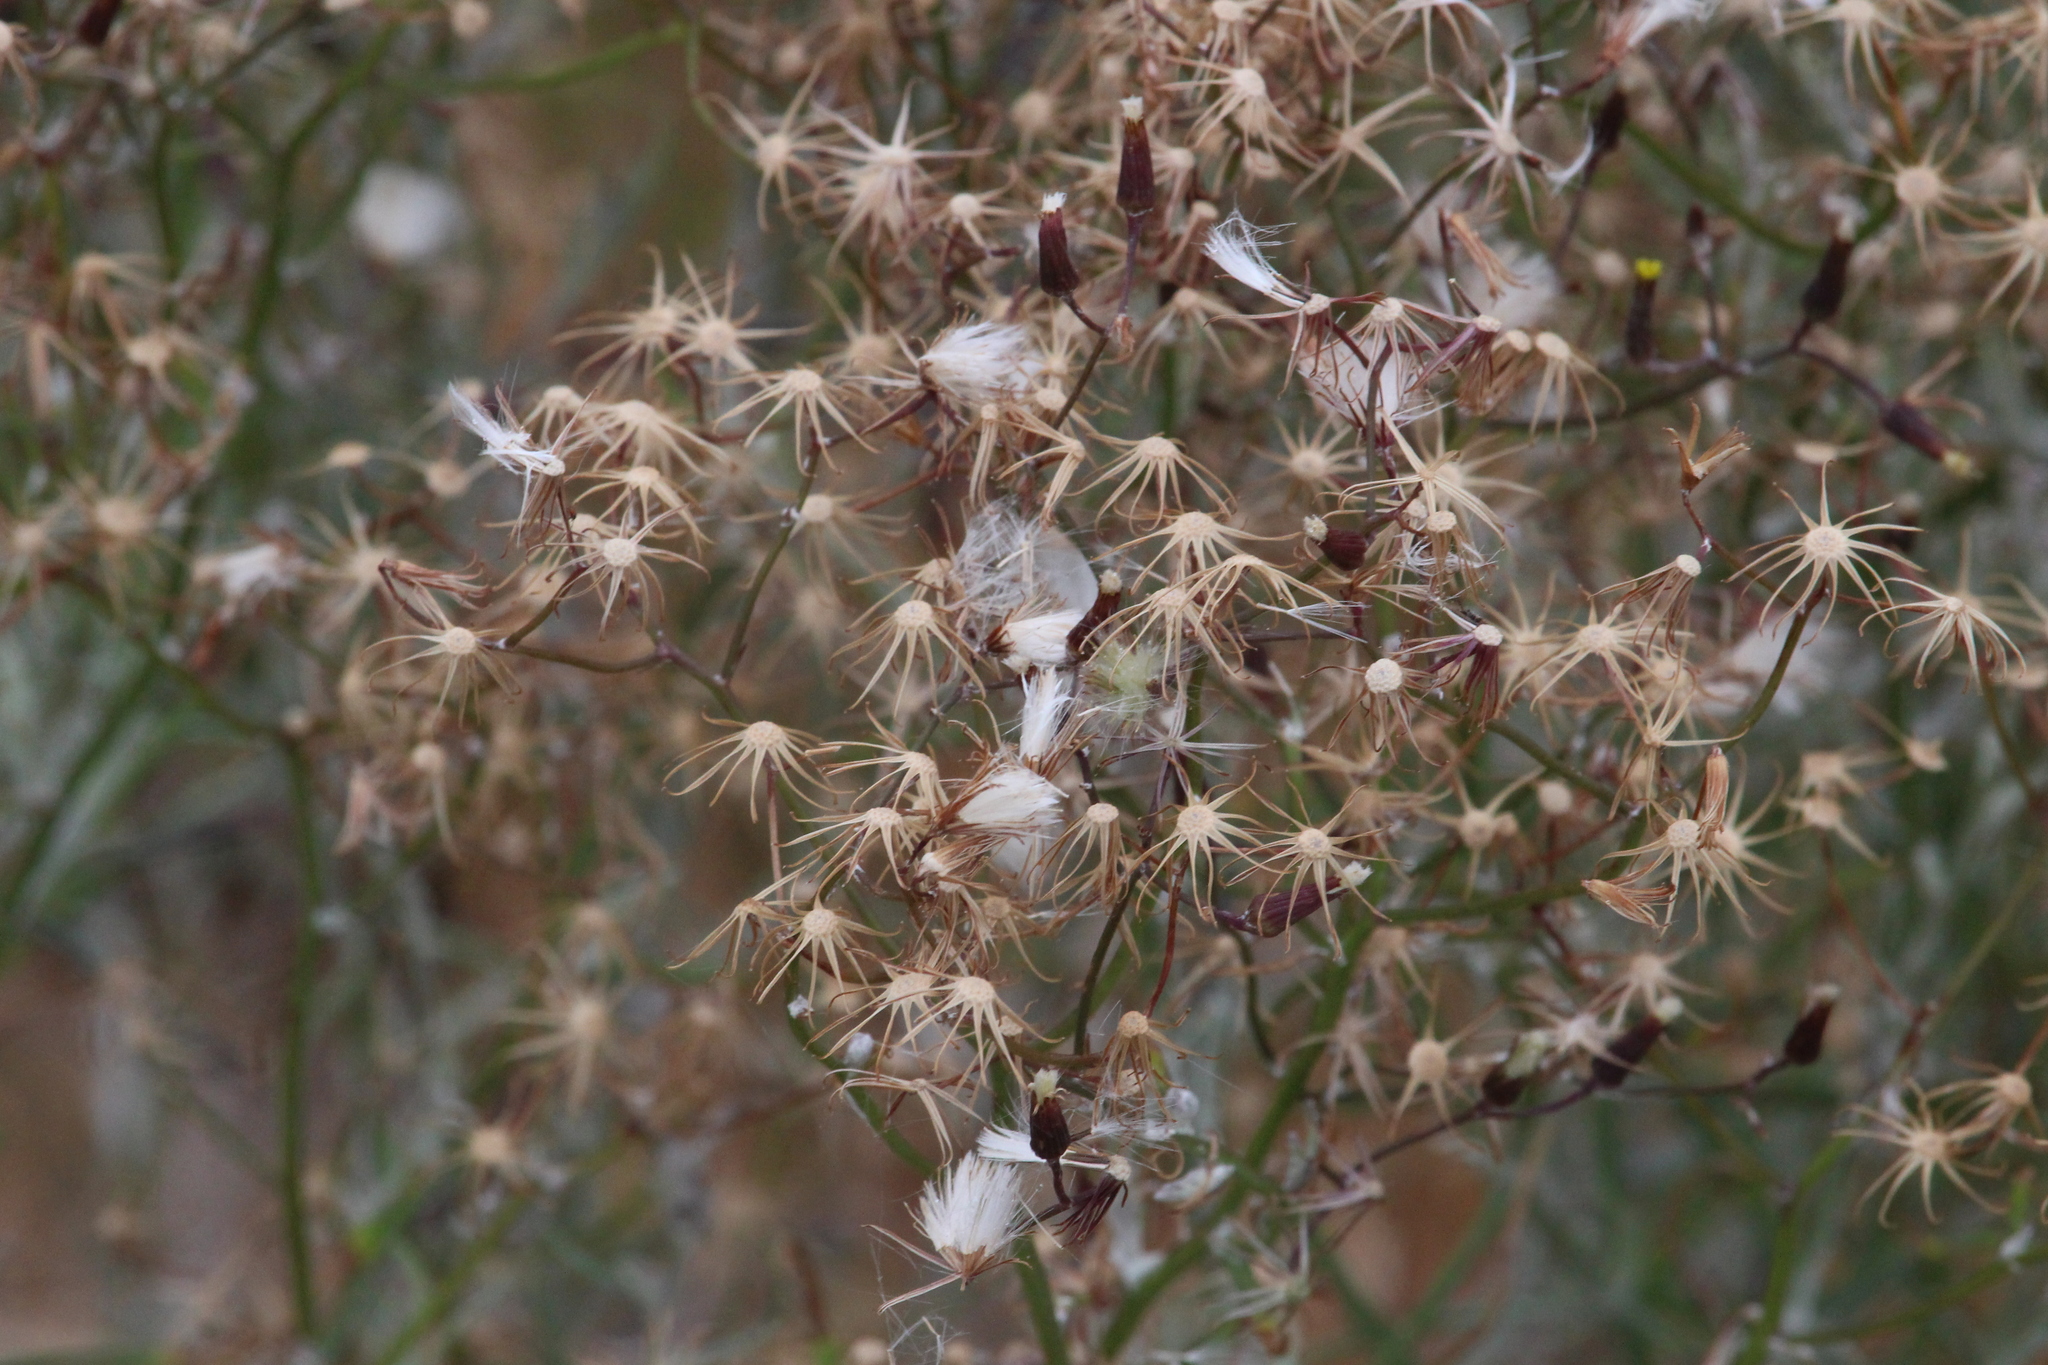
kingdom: Plantae
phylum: Tracheophyta
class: Magnoliopsida
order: Asterales
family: Asteraceae
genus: Senecio
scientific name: Senecio quadridentatus
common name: Cotton fireweed
